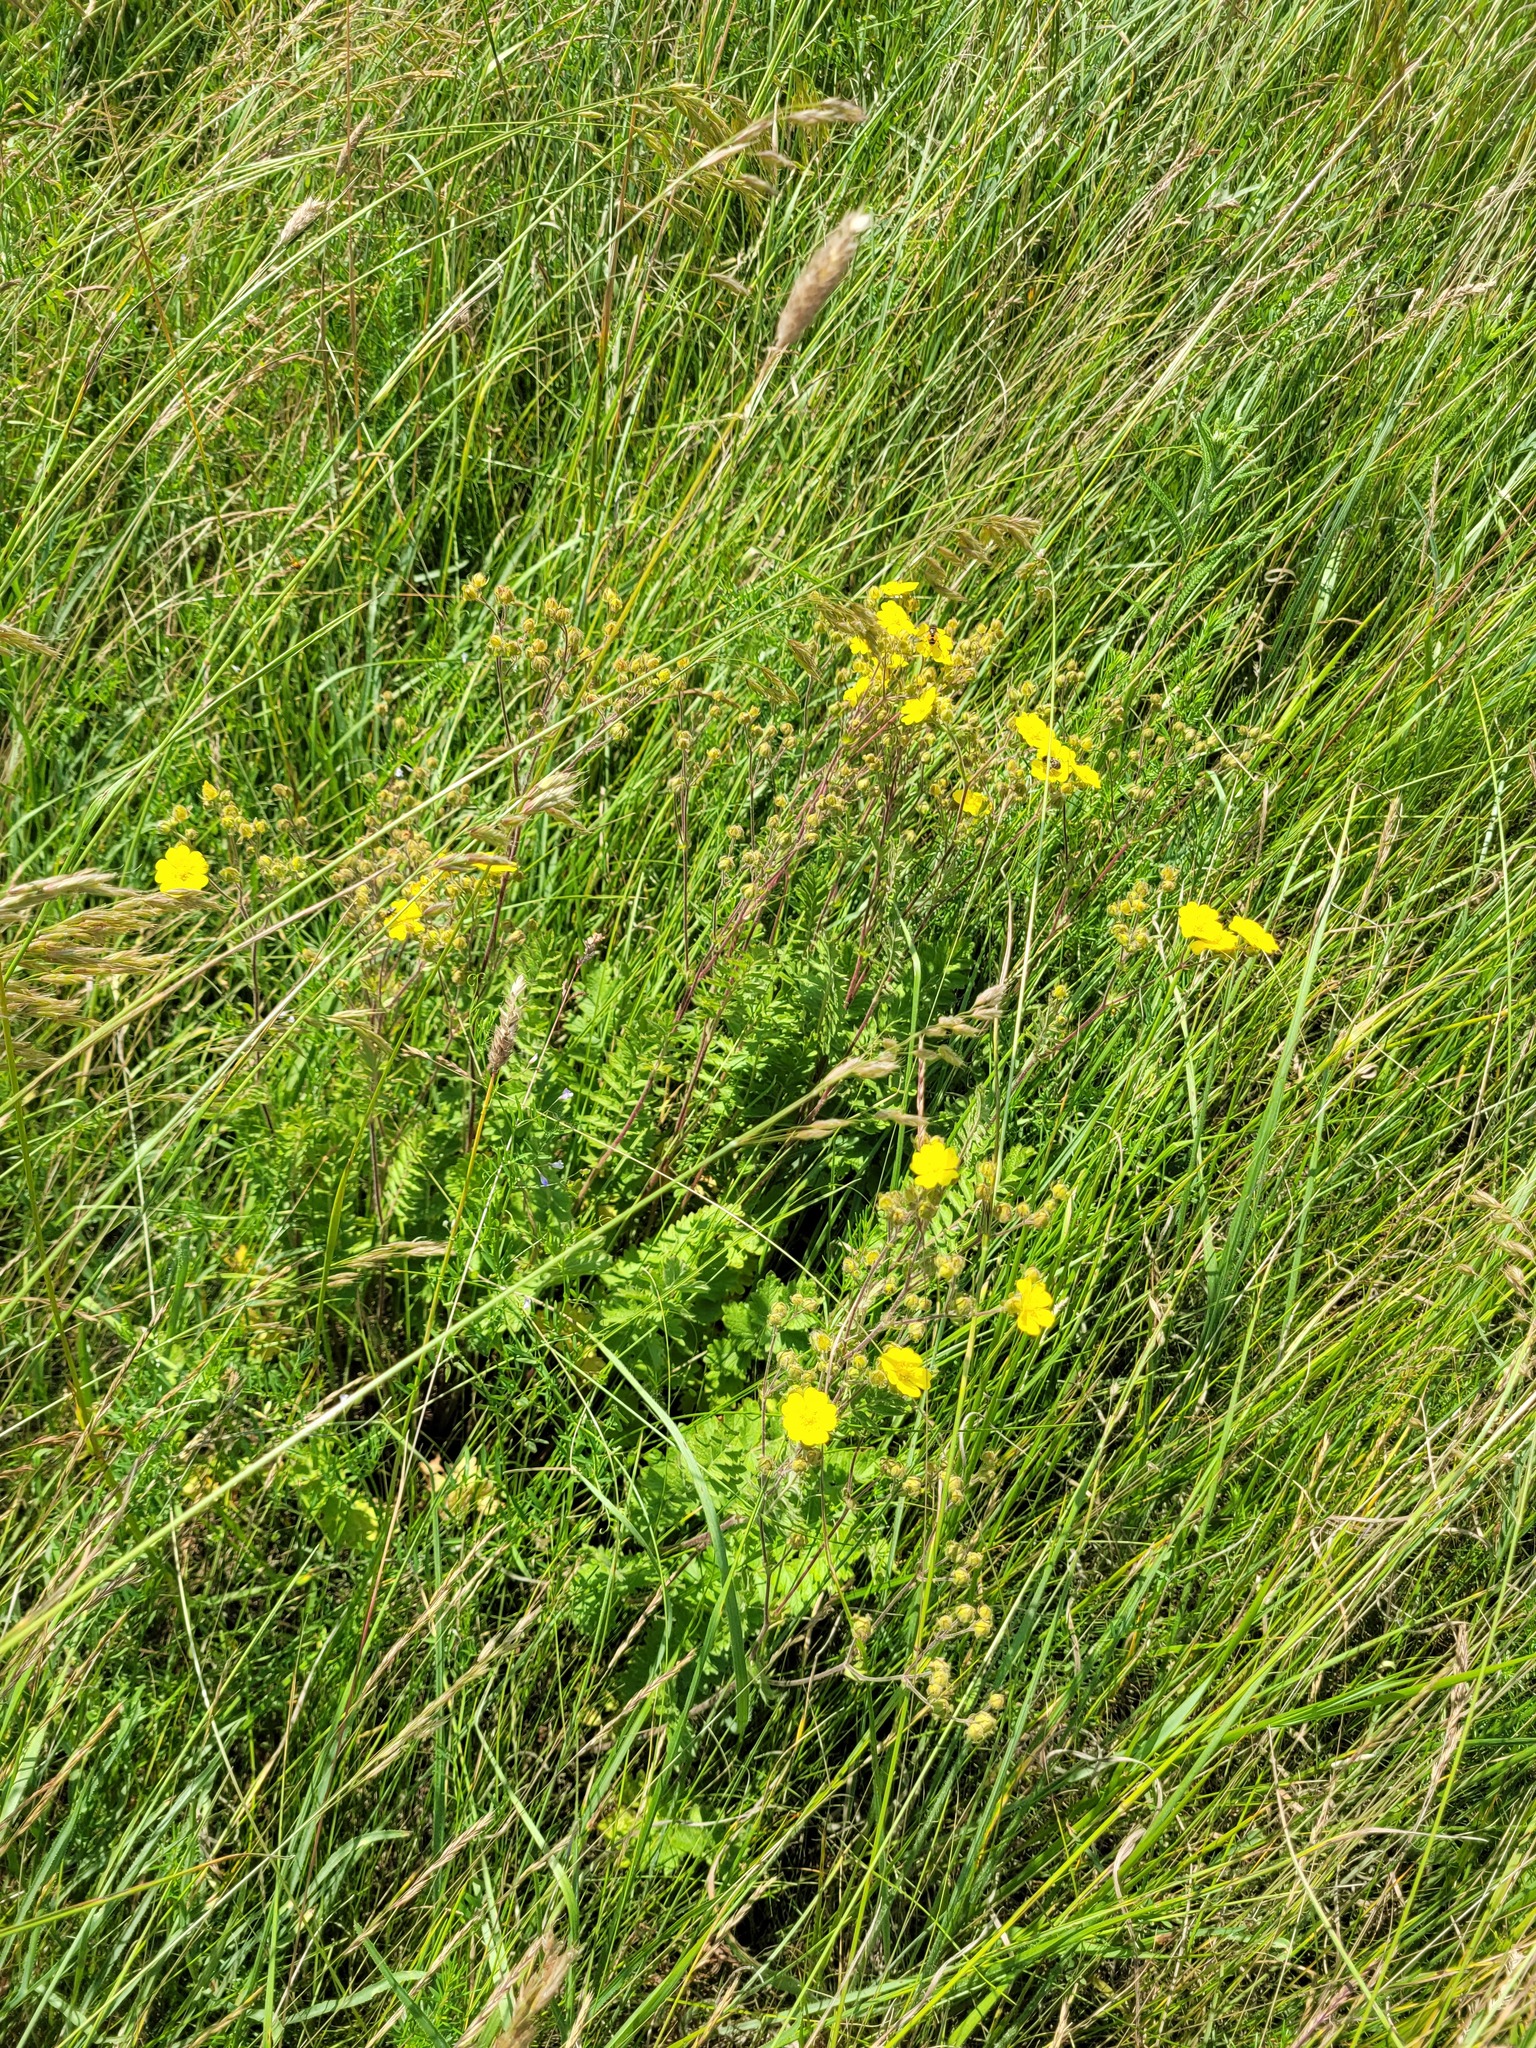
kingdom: Plantae
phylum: Tracheophyta
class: Magnoliopsida
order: Rosales
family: Rosaceae
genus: Potentilla
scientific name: Potentilla pimpinelloides
